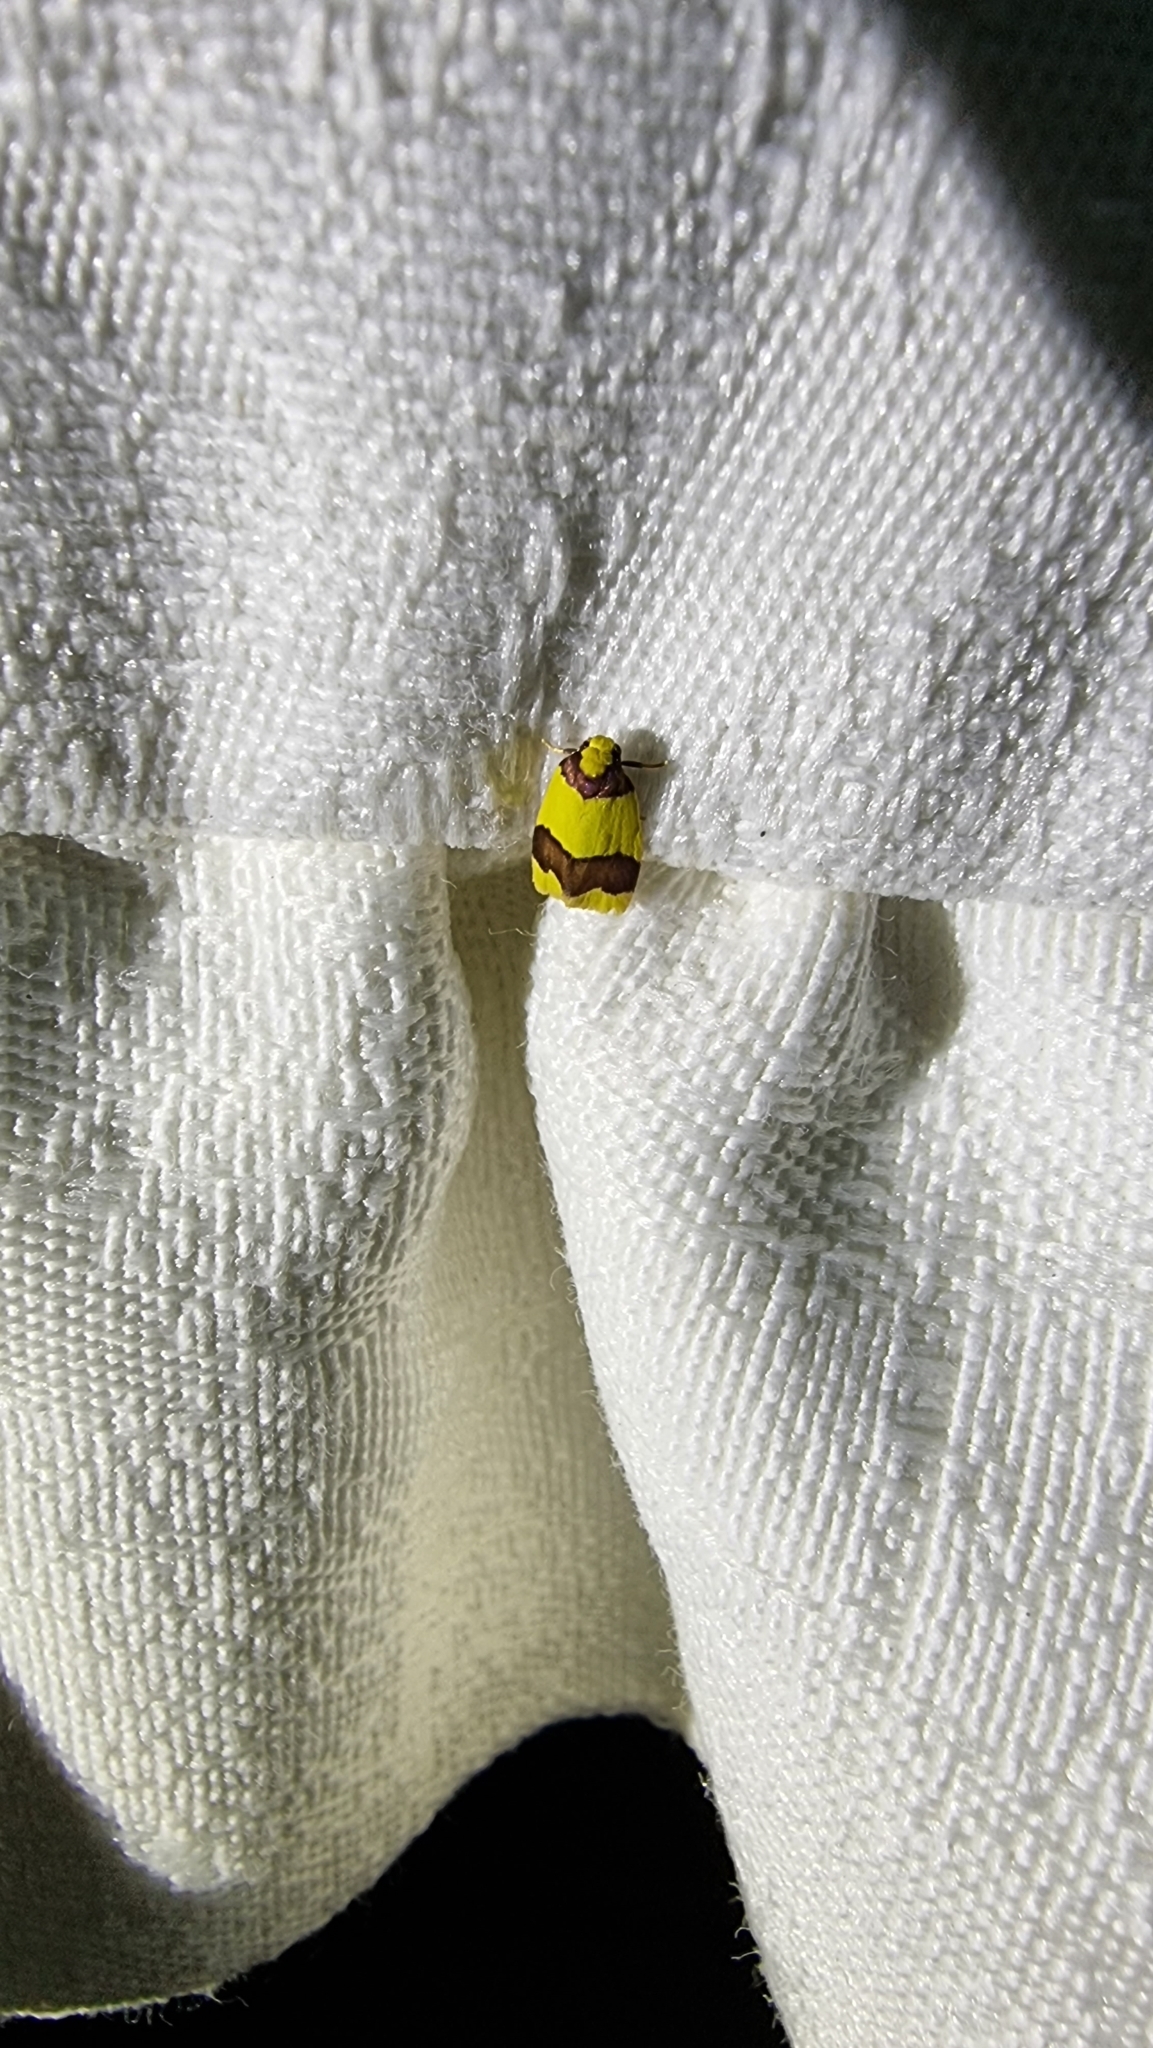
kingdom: Animalia
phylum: Arthropoda
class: Insecta
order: Lepidoptera
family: Erebidae
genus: Heterallactis
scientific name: Heterallactis microchrysa
